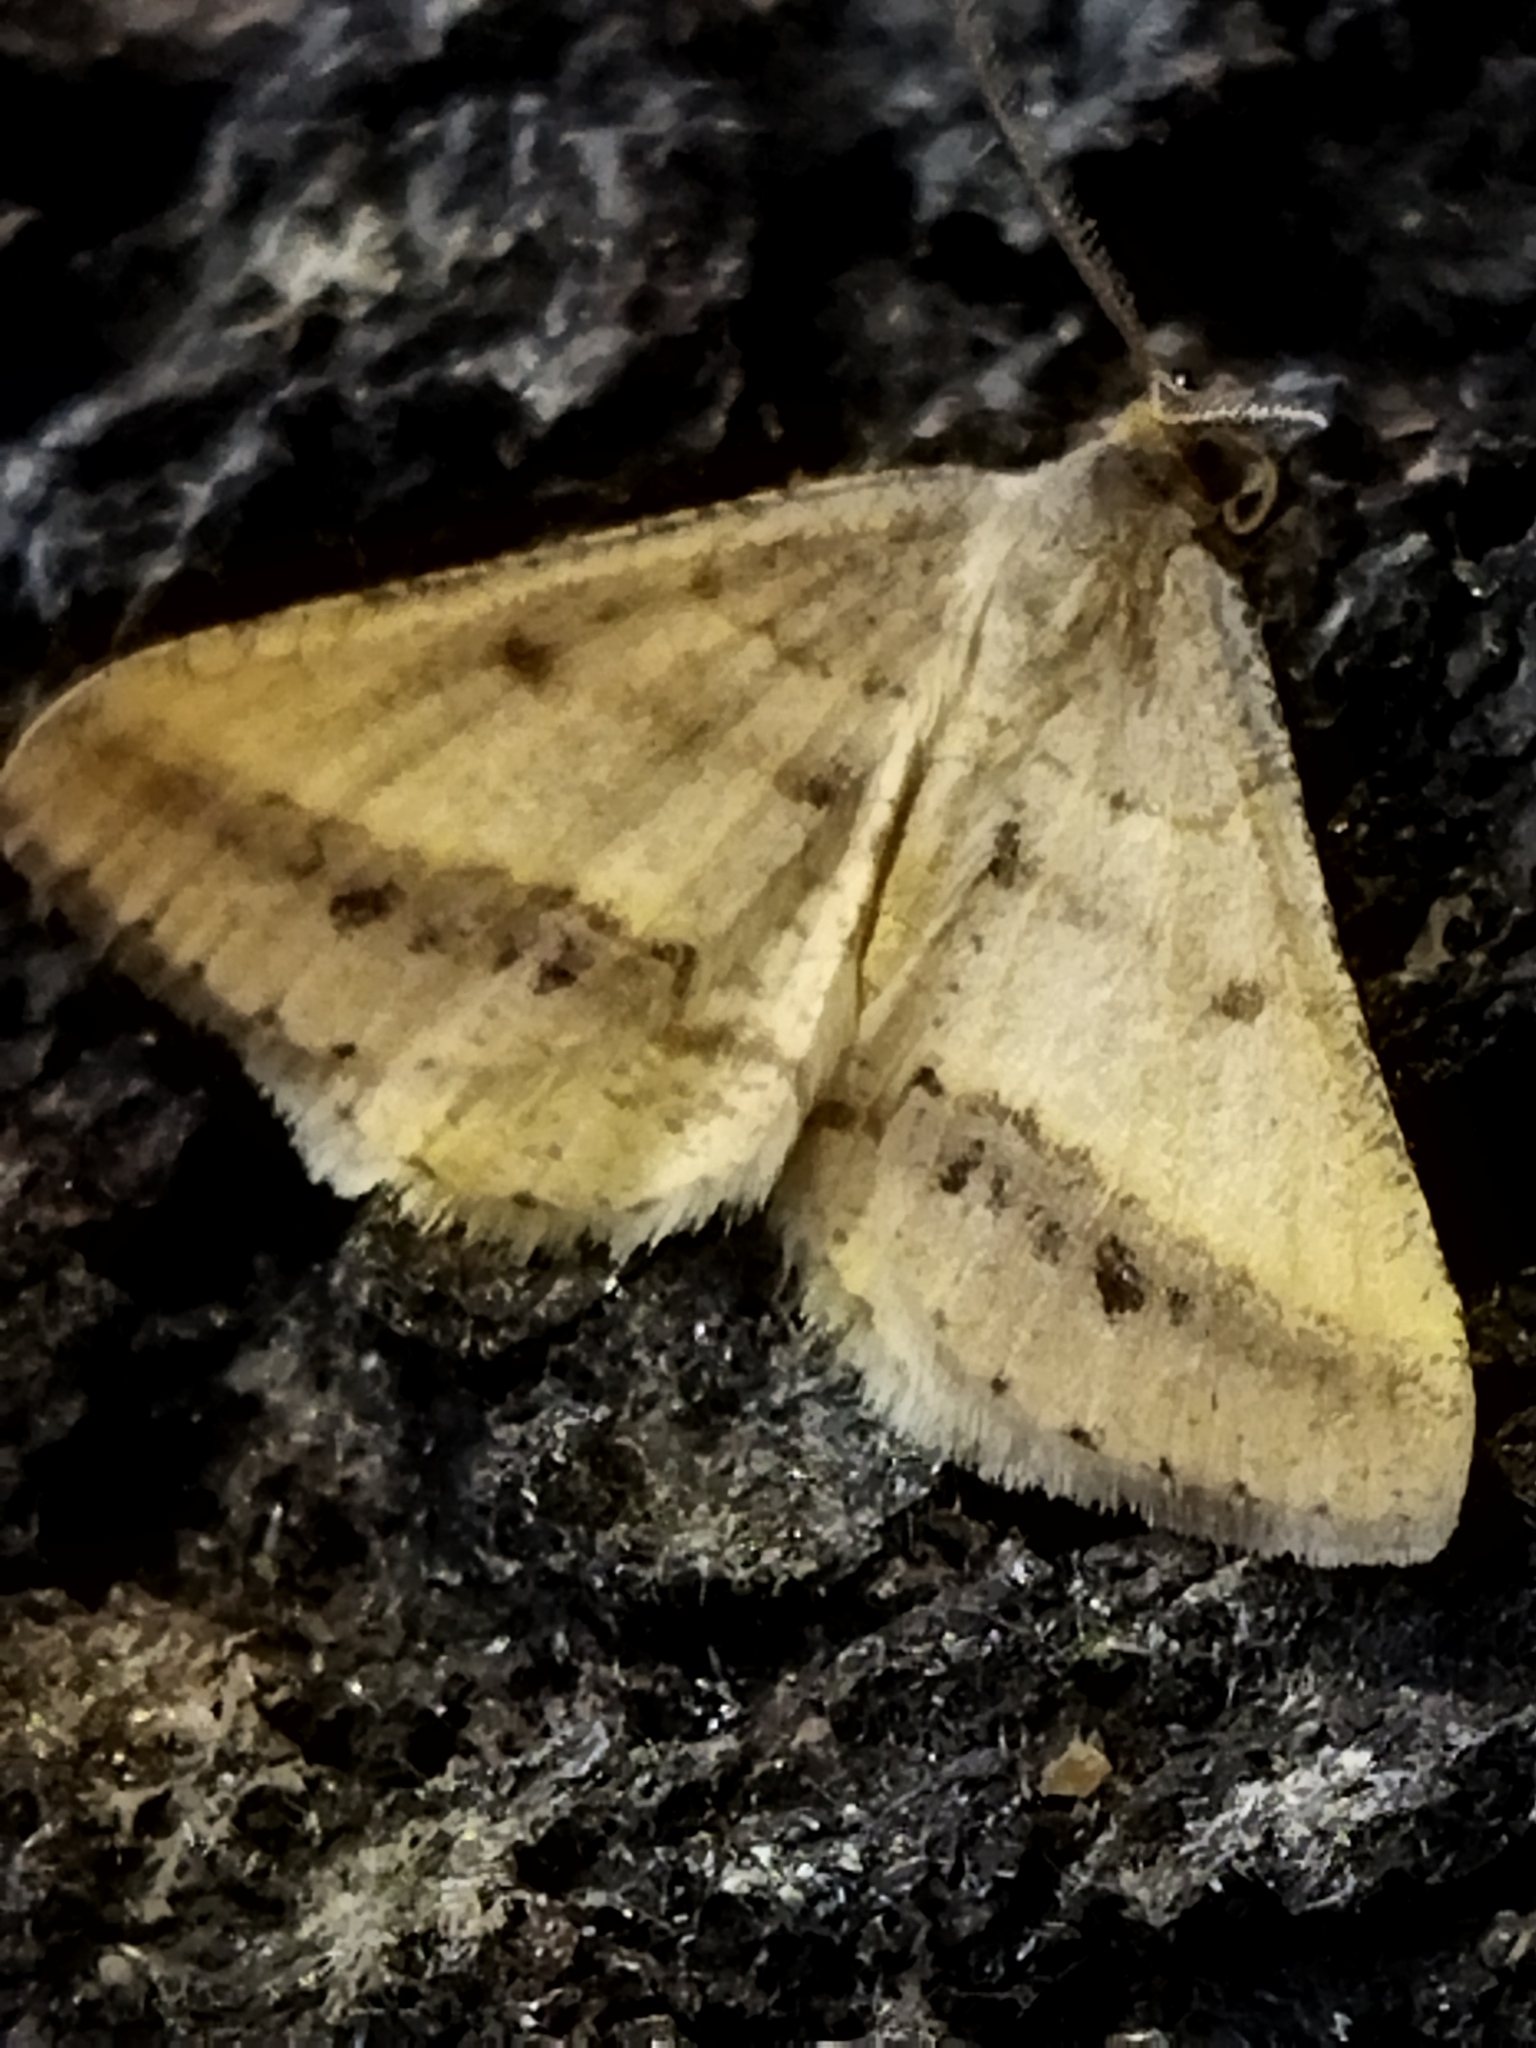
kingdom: Animalia
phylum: Arthropoda
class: Insecta
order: Lepidoptera
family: Geometridae
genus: Tephrina
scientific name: Tephrina arenacearia
